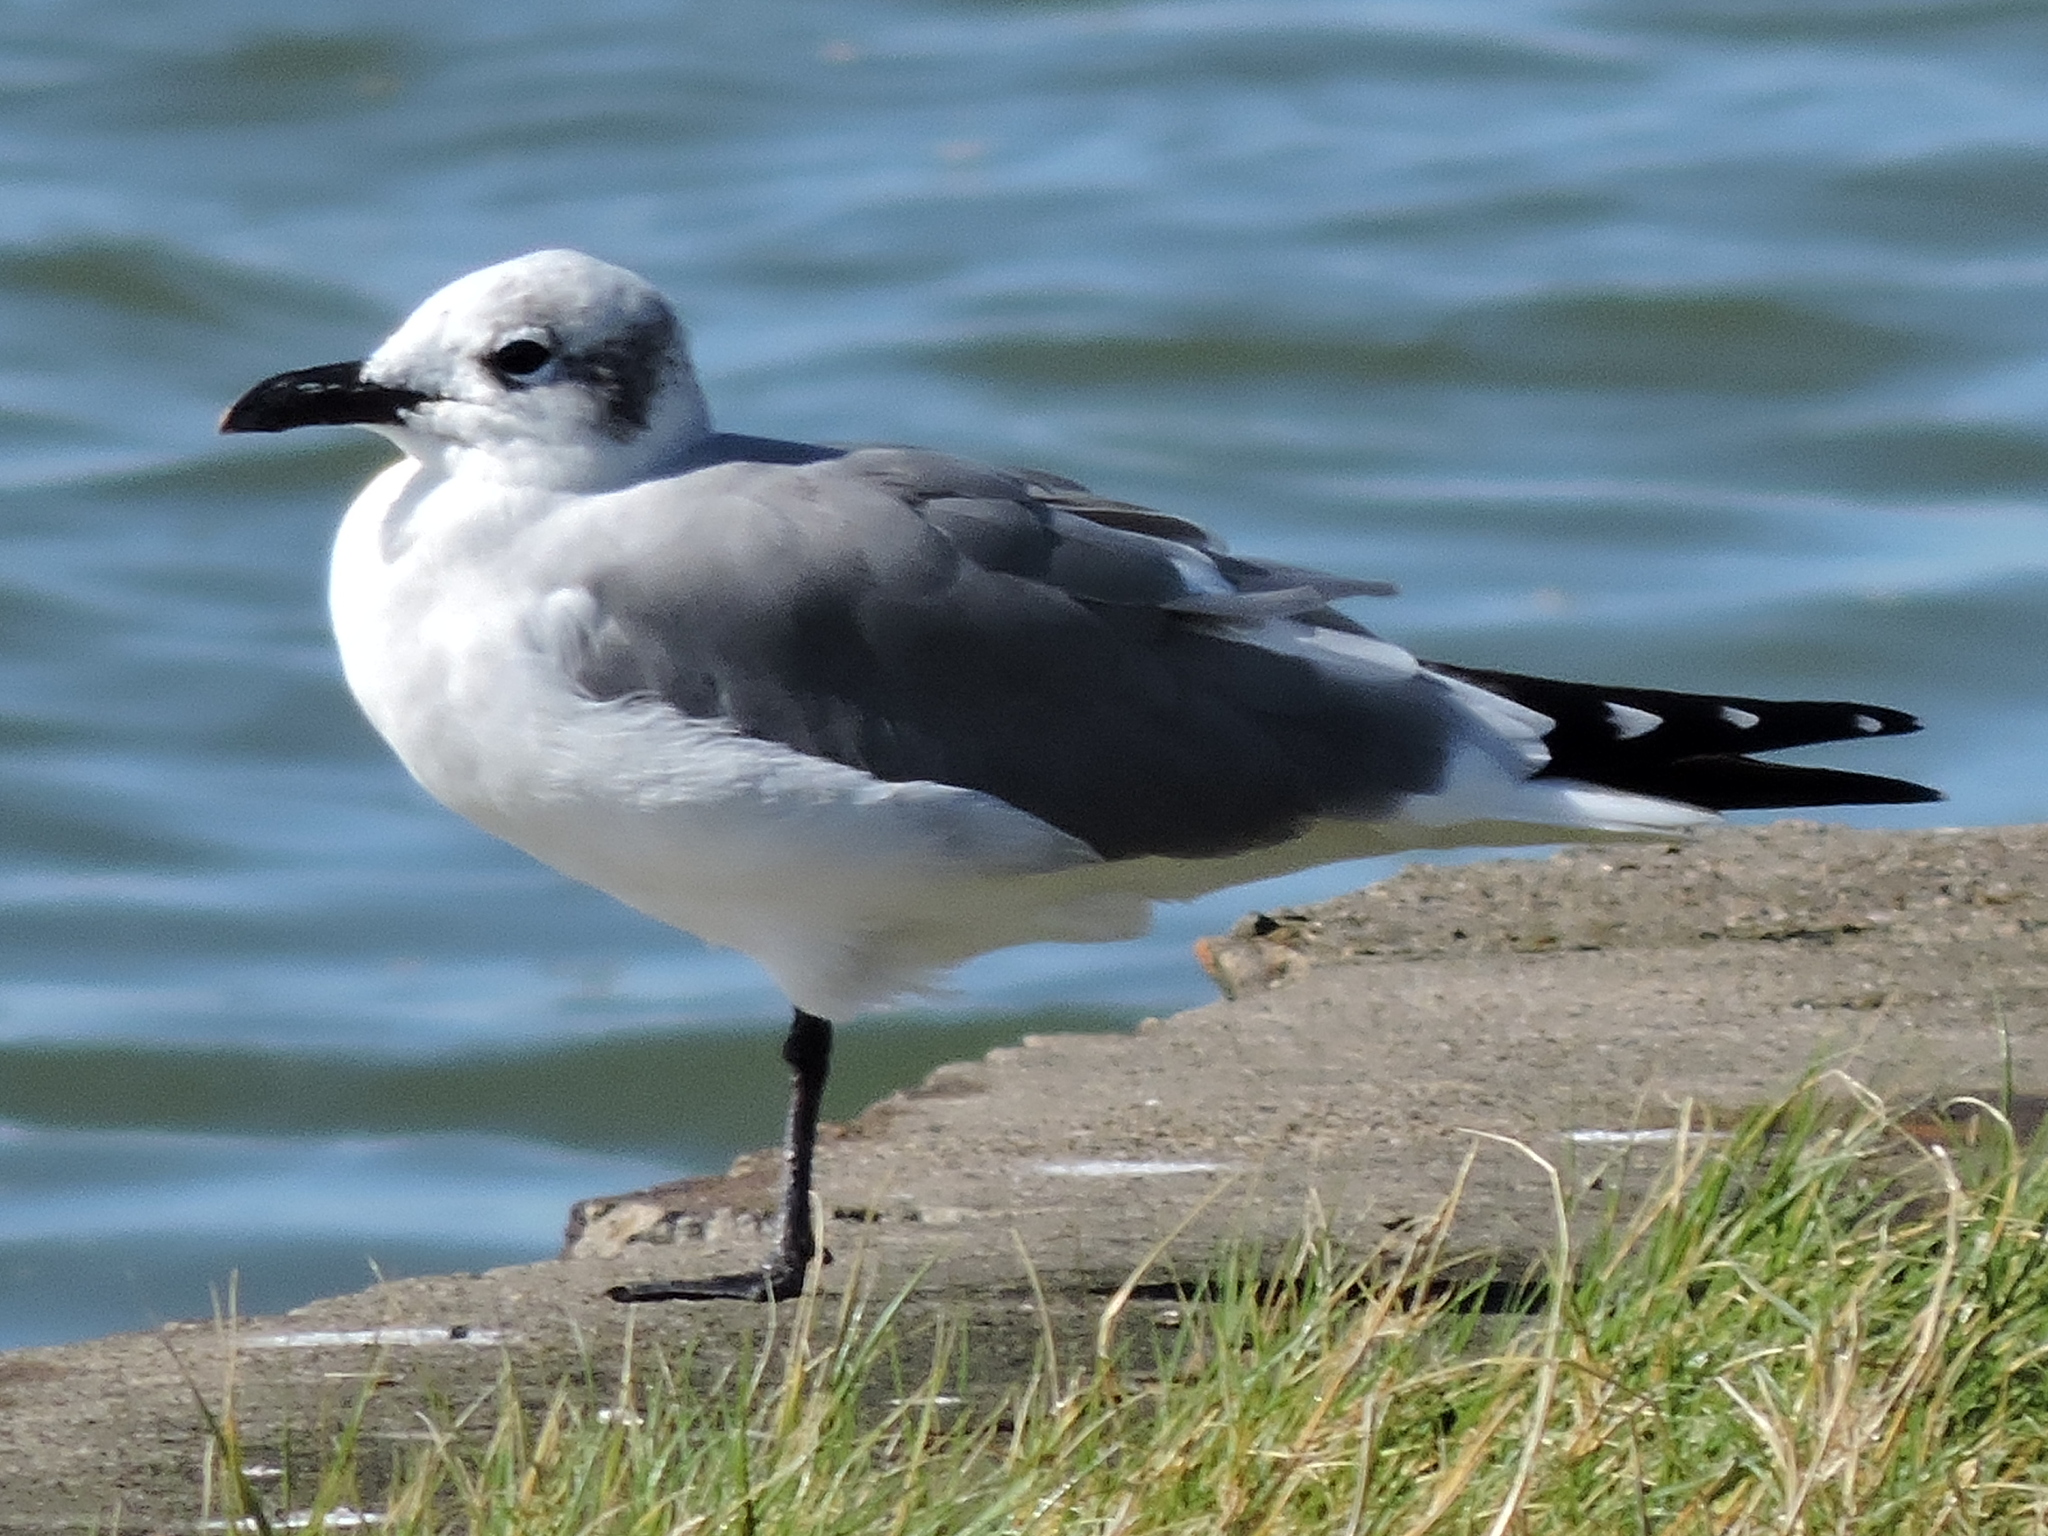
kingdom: Animalia
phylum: Chordata
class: Aves
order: Charadriiformes
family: Laridae
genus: Leucophaeus
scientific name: Leucophaeus atricilla
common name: Laughing gull
